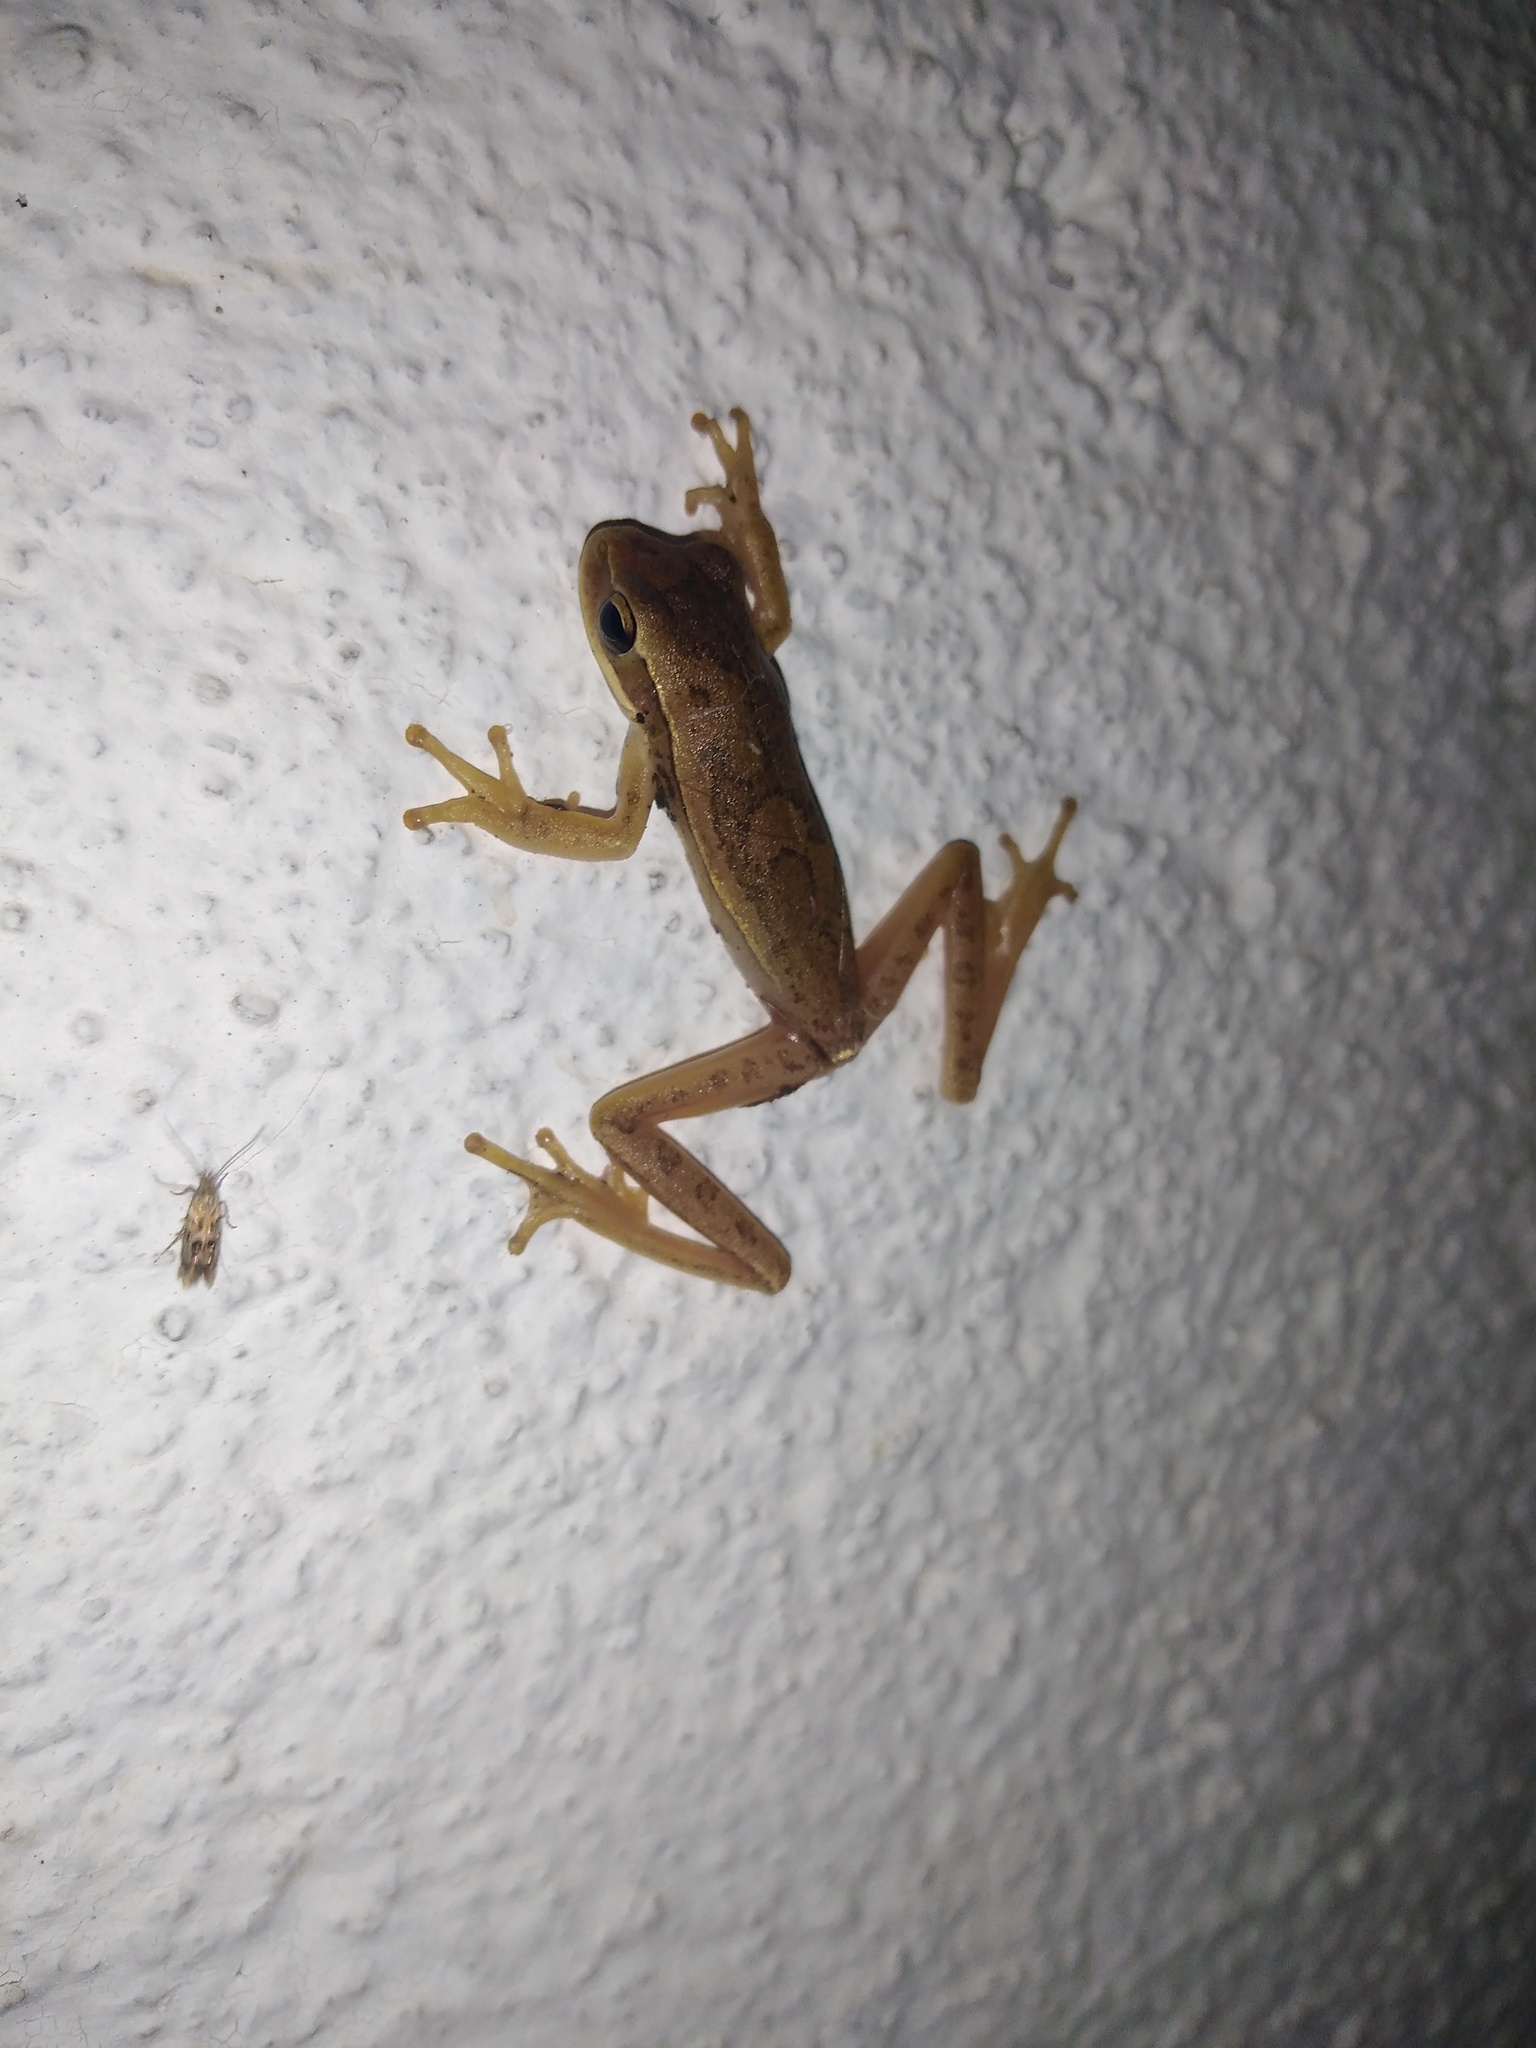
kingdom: Animalia
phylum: Chordata
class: Amphibia
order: Anura
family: Hylidae
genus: Boana
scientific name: Boana pulchella
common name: Montevideo treefrog
